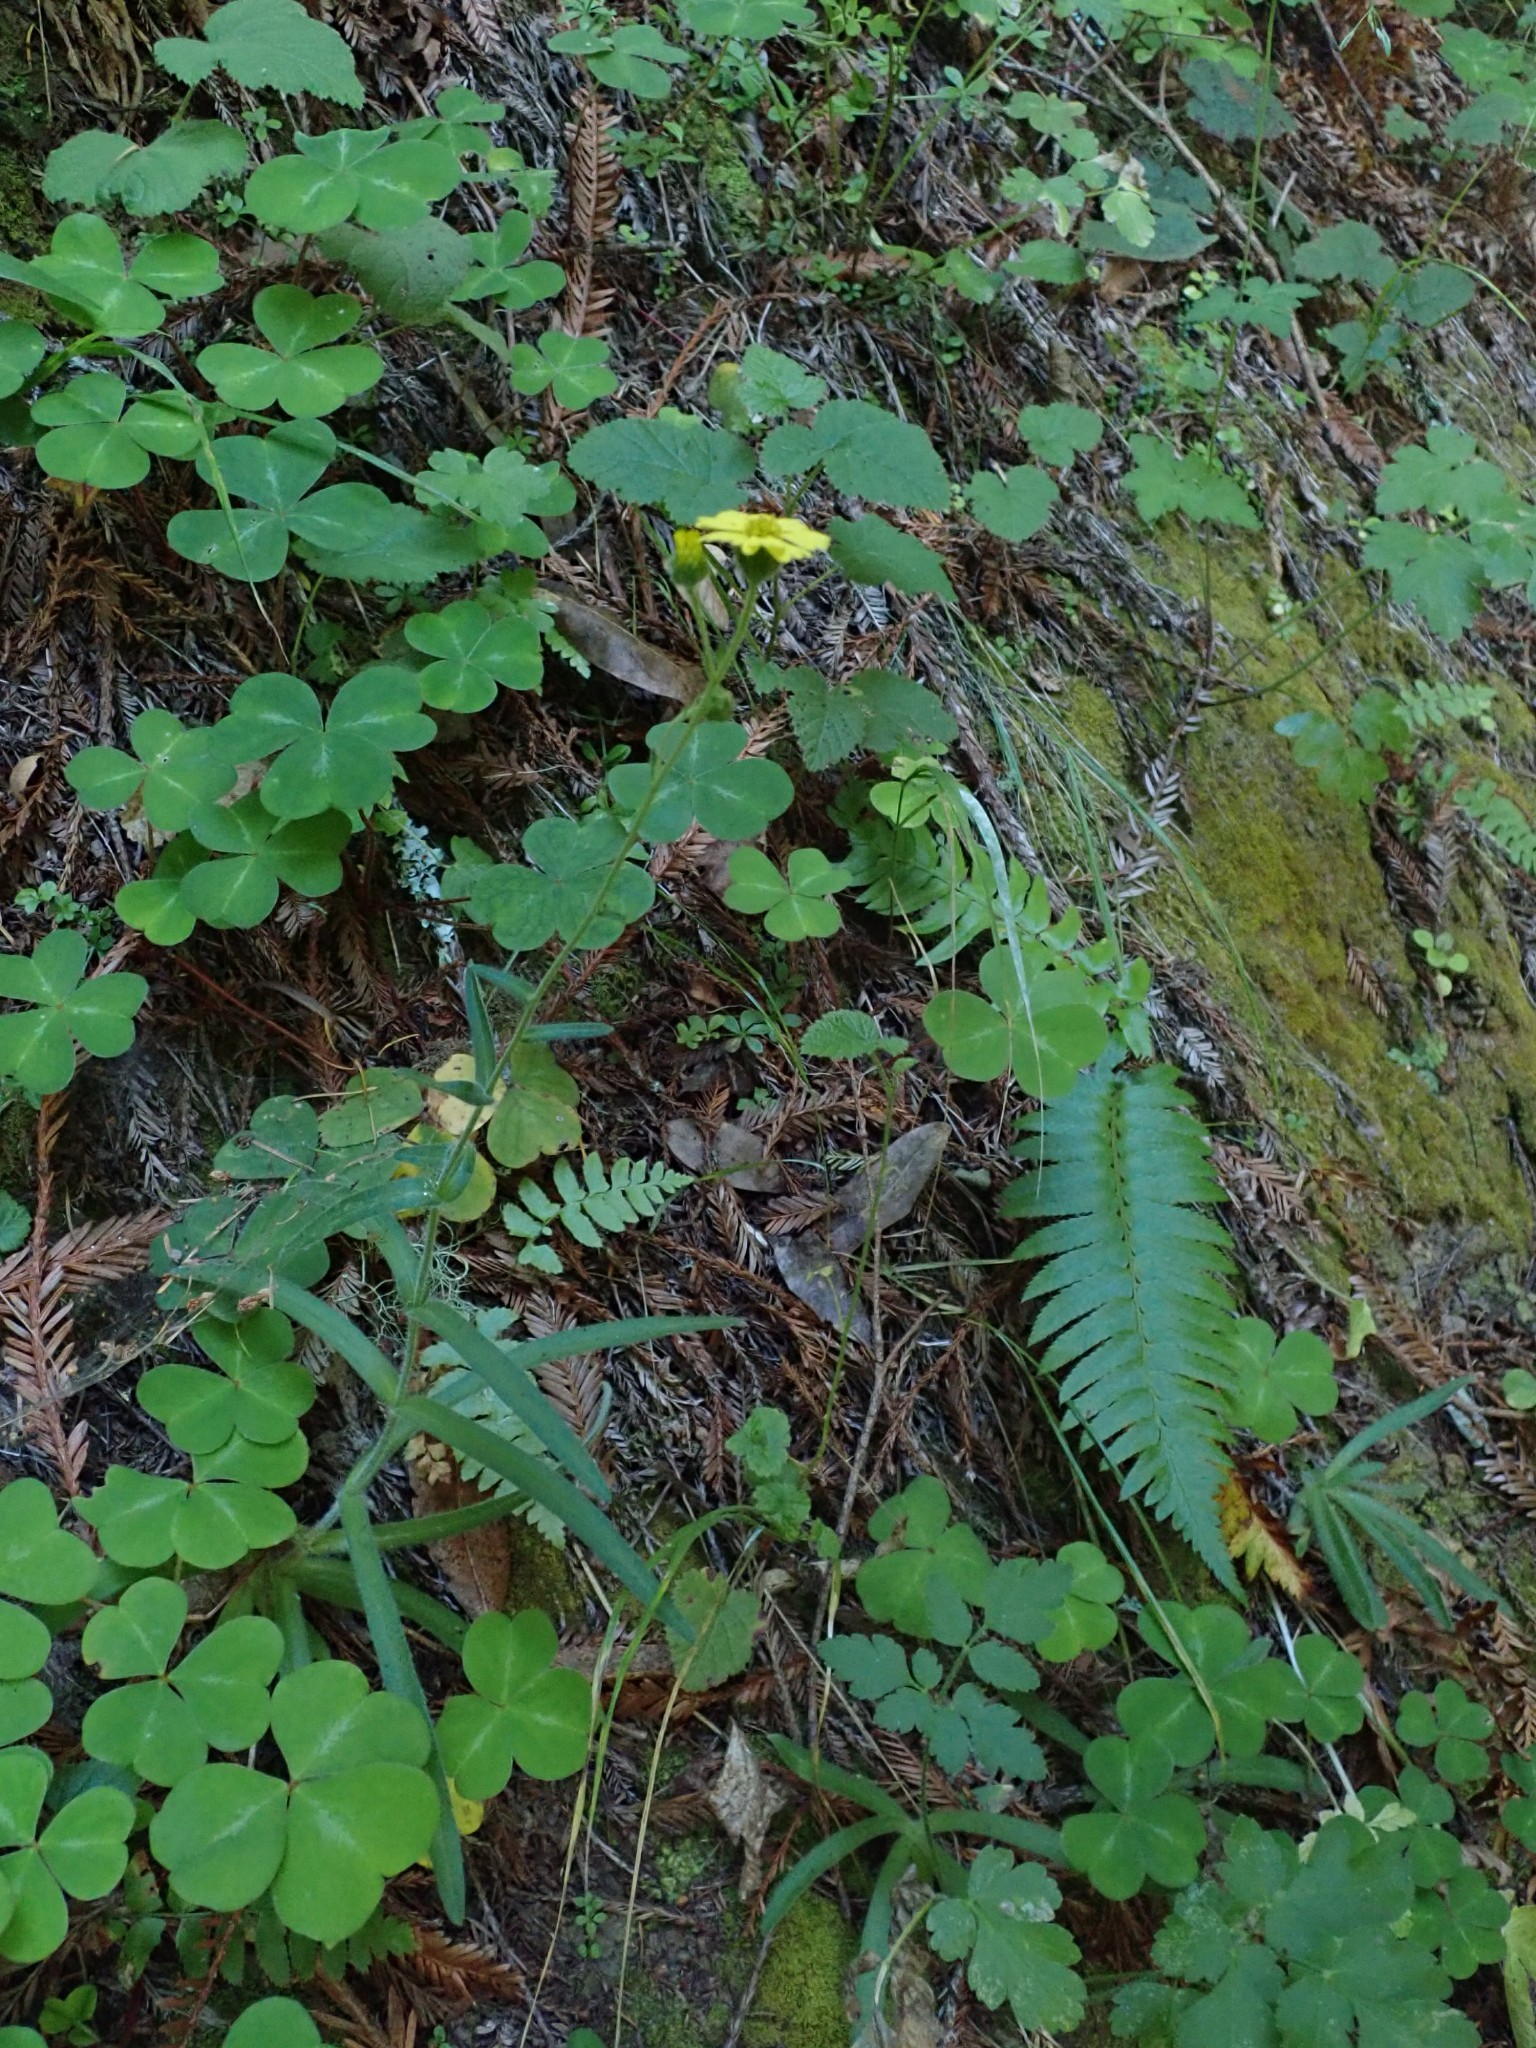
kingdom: Plantae
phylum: Tracheophyta
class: Magnoliopsida
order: Asterales
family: Asteraceae
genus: Anisocarpus
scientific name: Anisocarpus madioides
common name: Woodland madia
